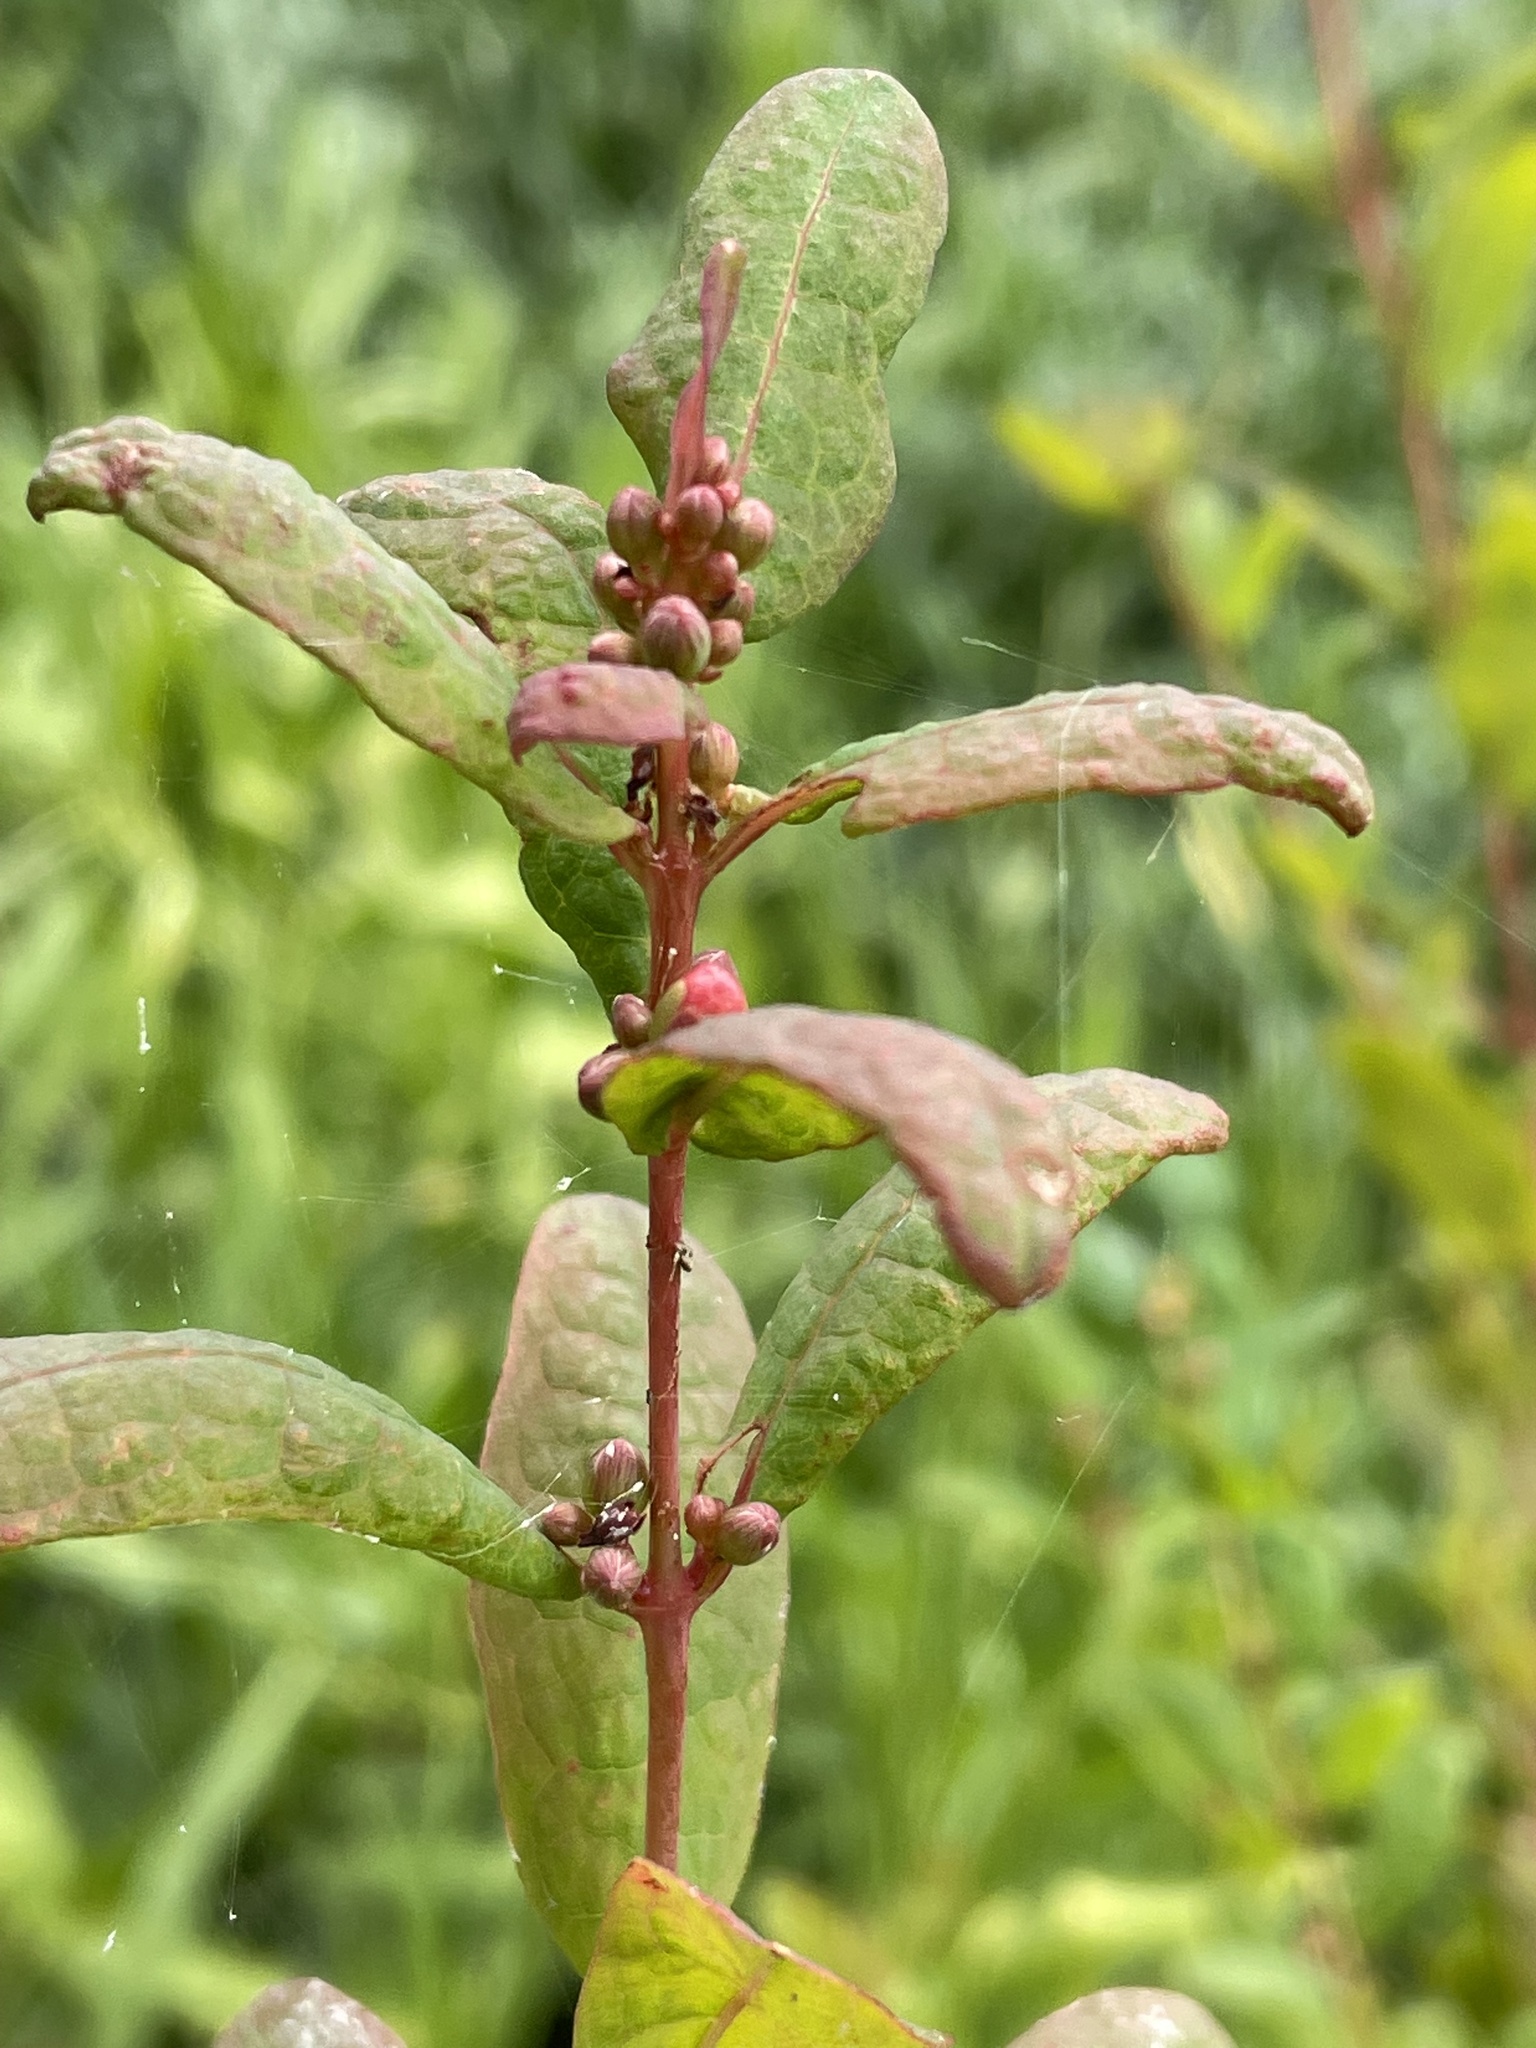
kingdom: Plantae
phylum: Tracheophyta
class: Magnoliopsida
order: Malpighiales
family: Hypericaceae
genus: Triadenum
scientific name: Triadenum walteri
